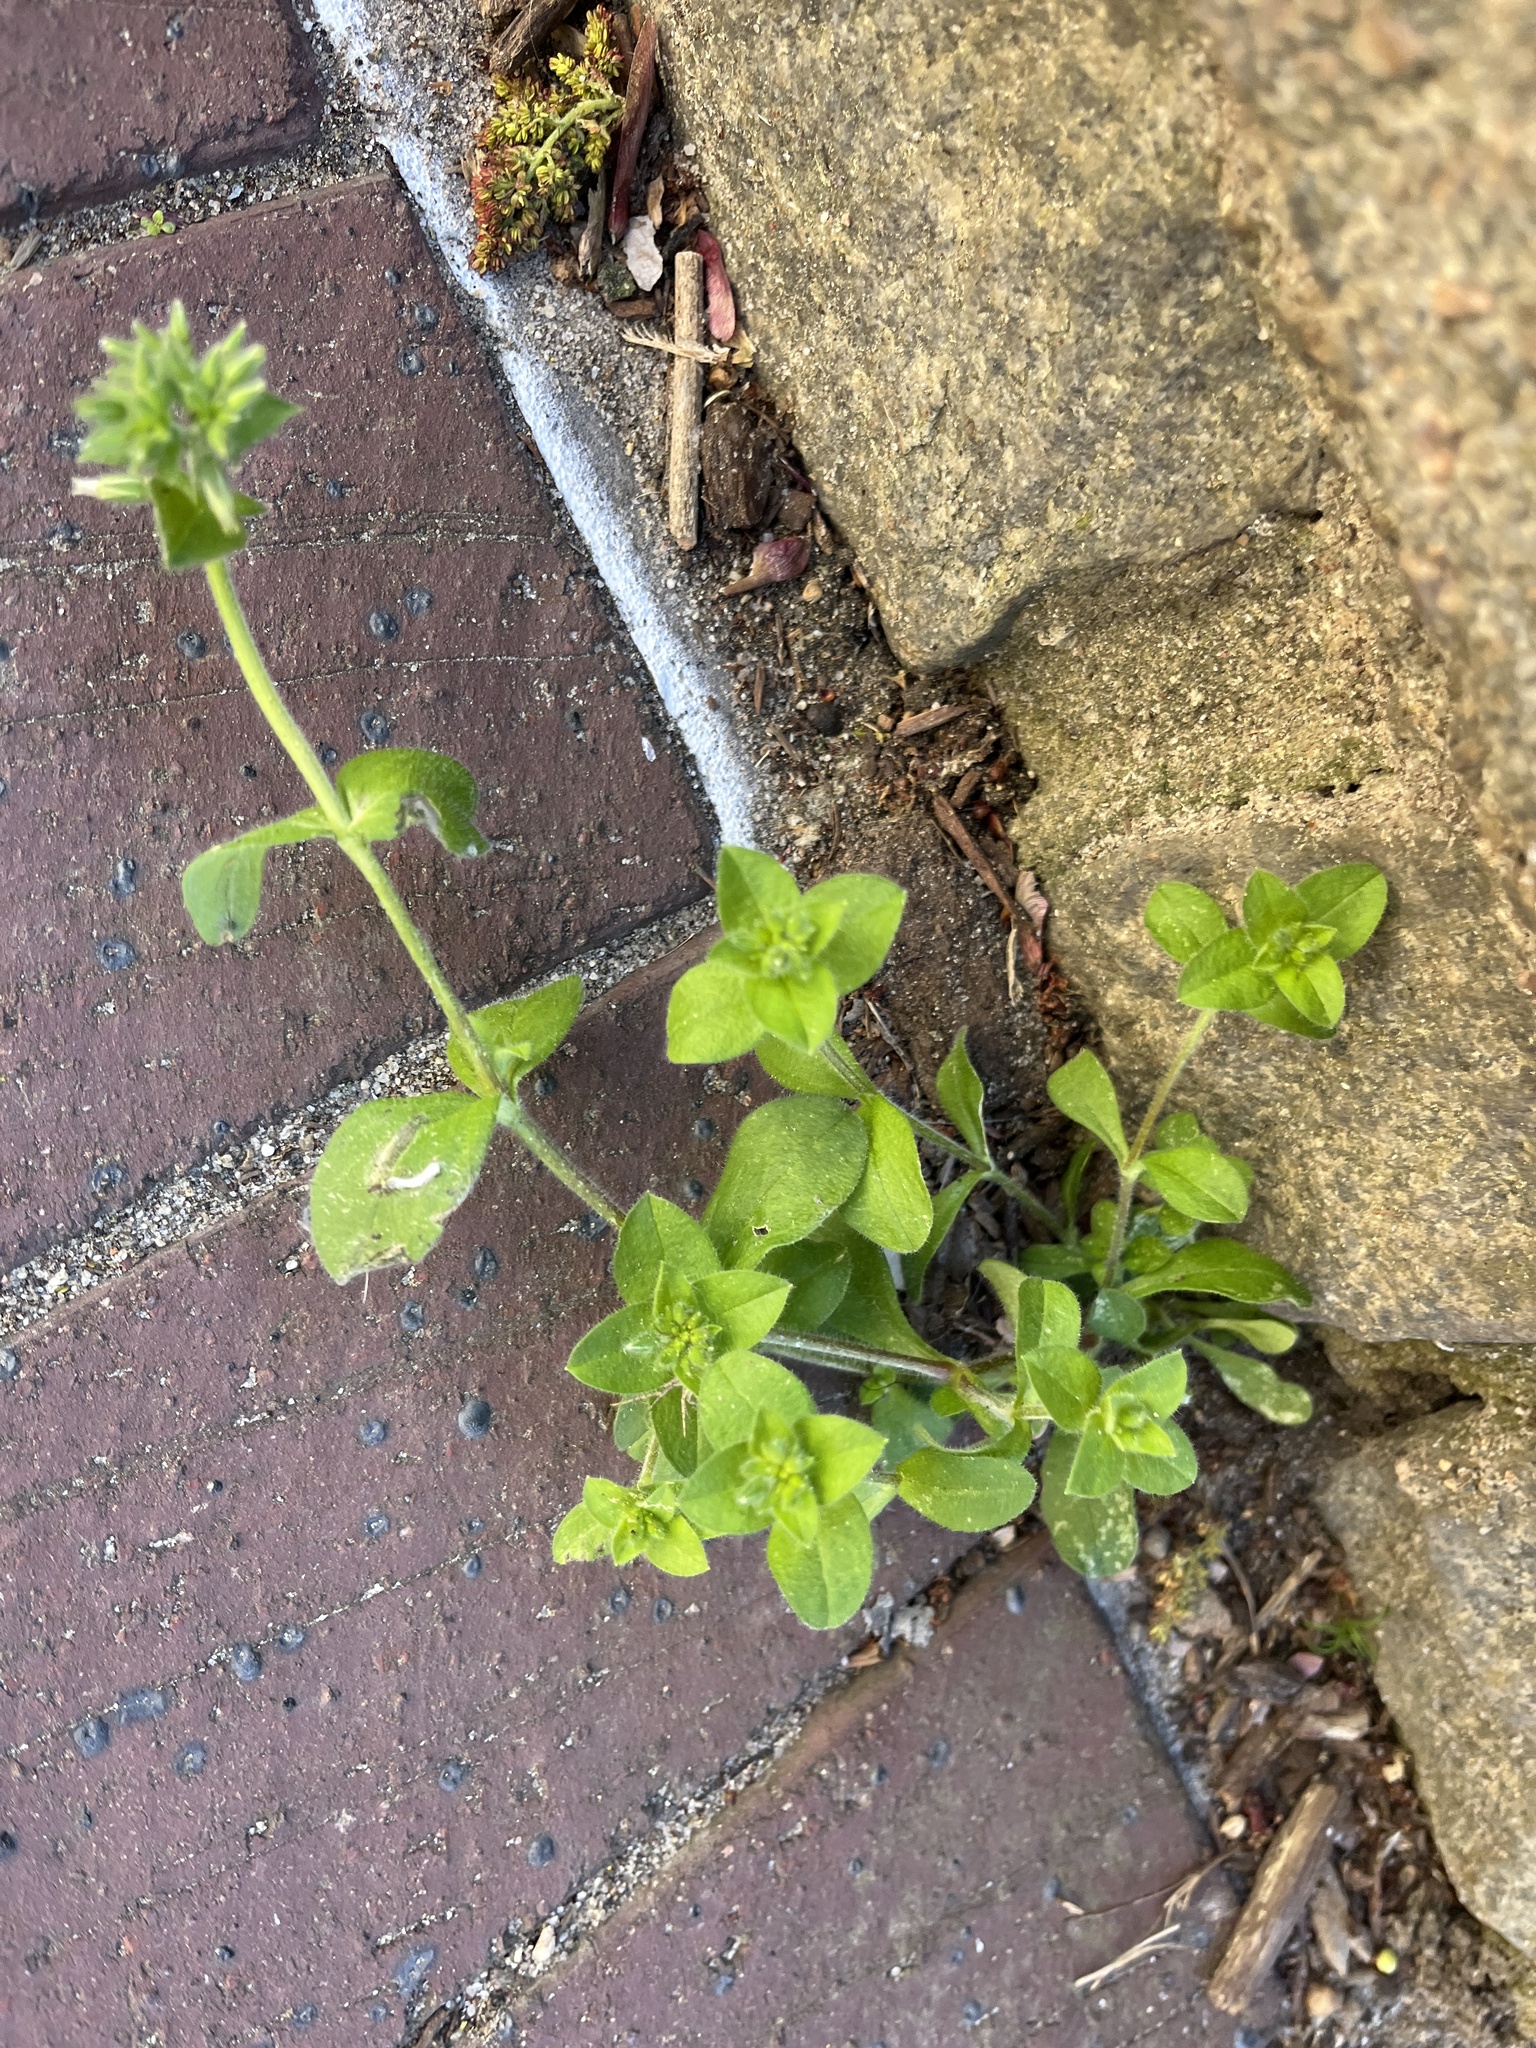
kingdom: Plantae
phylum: Tracheophyta
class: Magnoliopsida
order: Caryophyllales
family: Caryophyllaceae
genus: Cerastium
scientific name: Cerastium glomeratum
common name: Sticky chickweed
